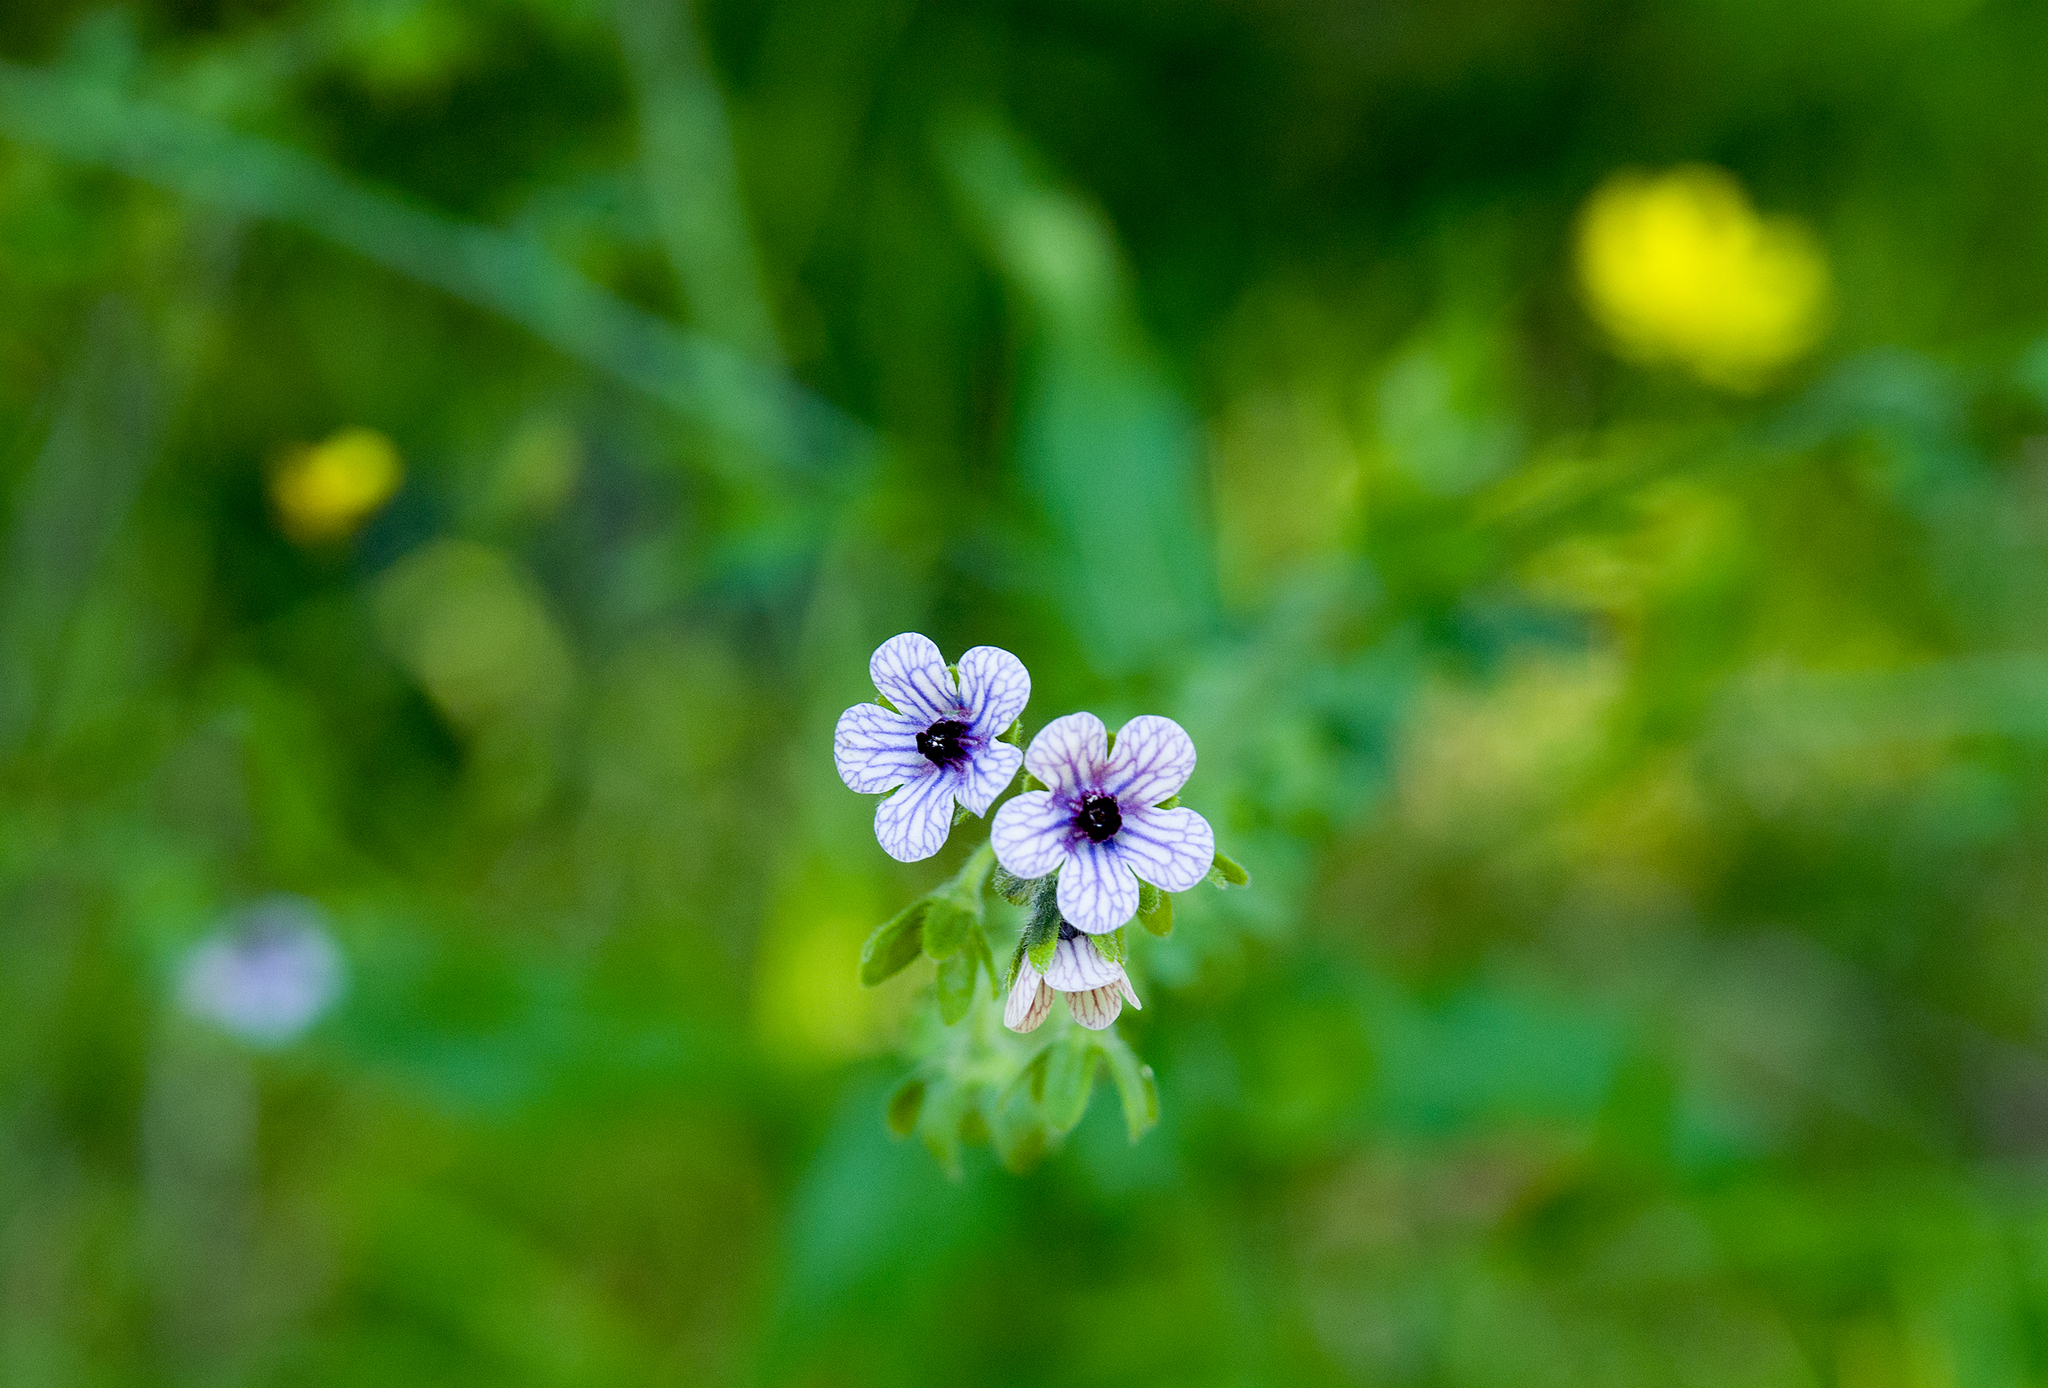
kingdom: Plantae
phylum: Tracheophyta
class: Magnoliopsida
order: Boraginales
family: Boraginaceae
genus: Cynoglossum
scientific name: Cynoglossum creticum
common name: Blue hound's tongue
